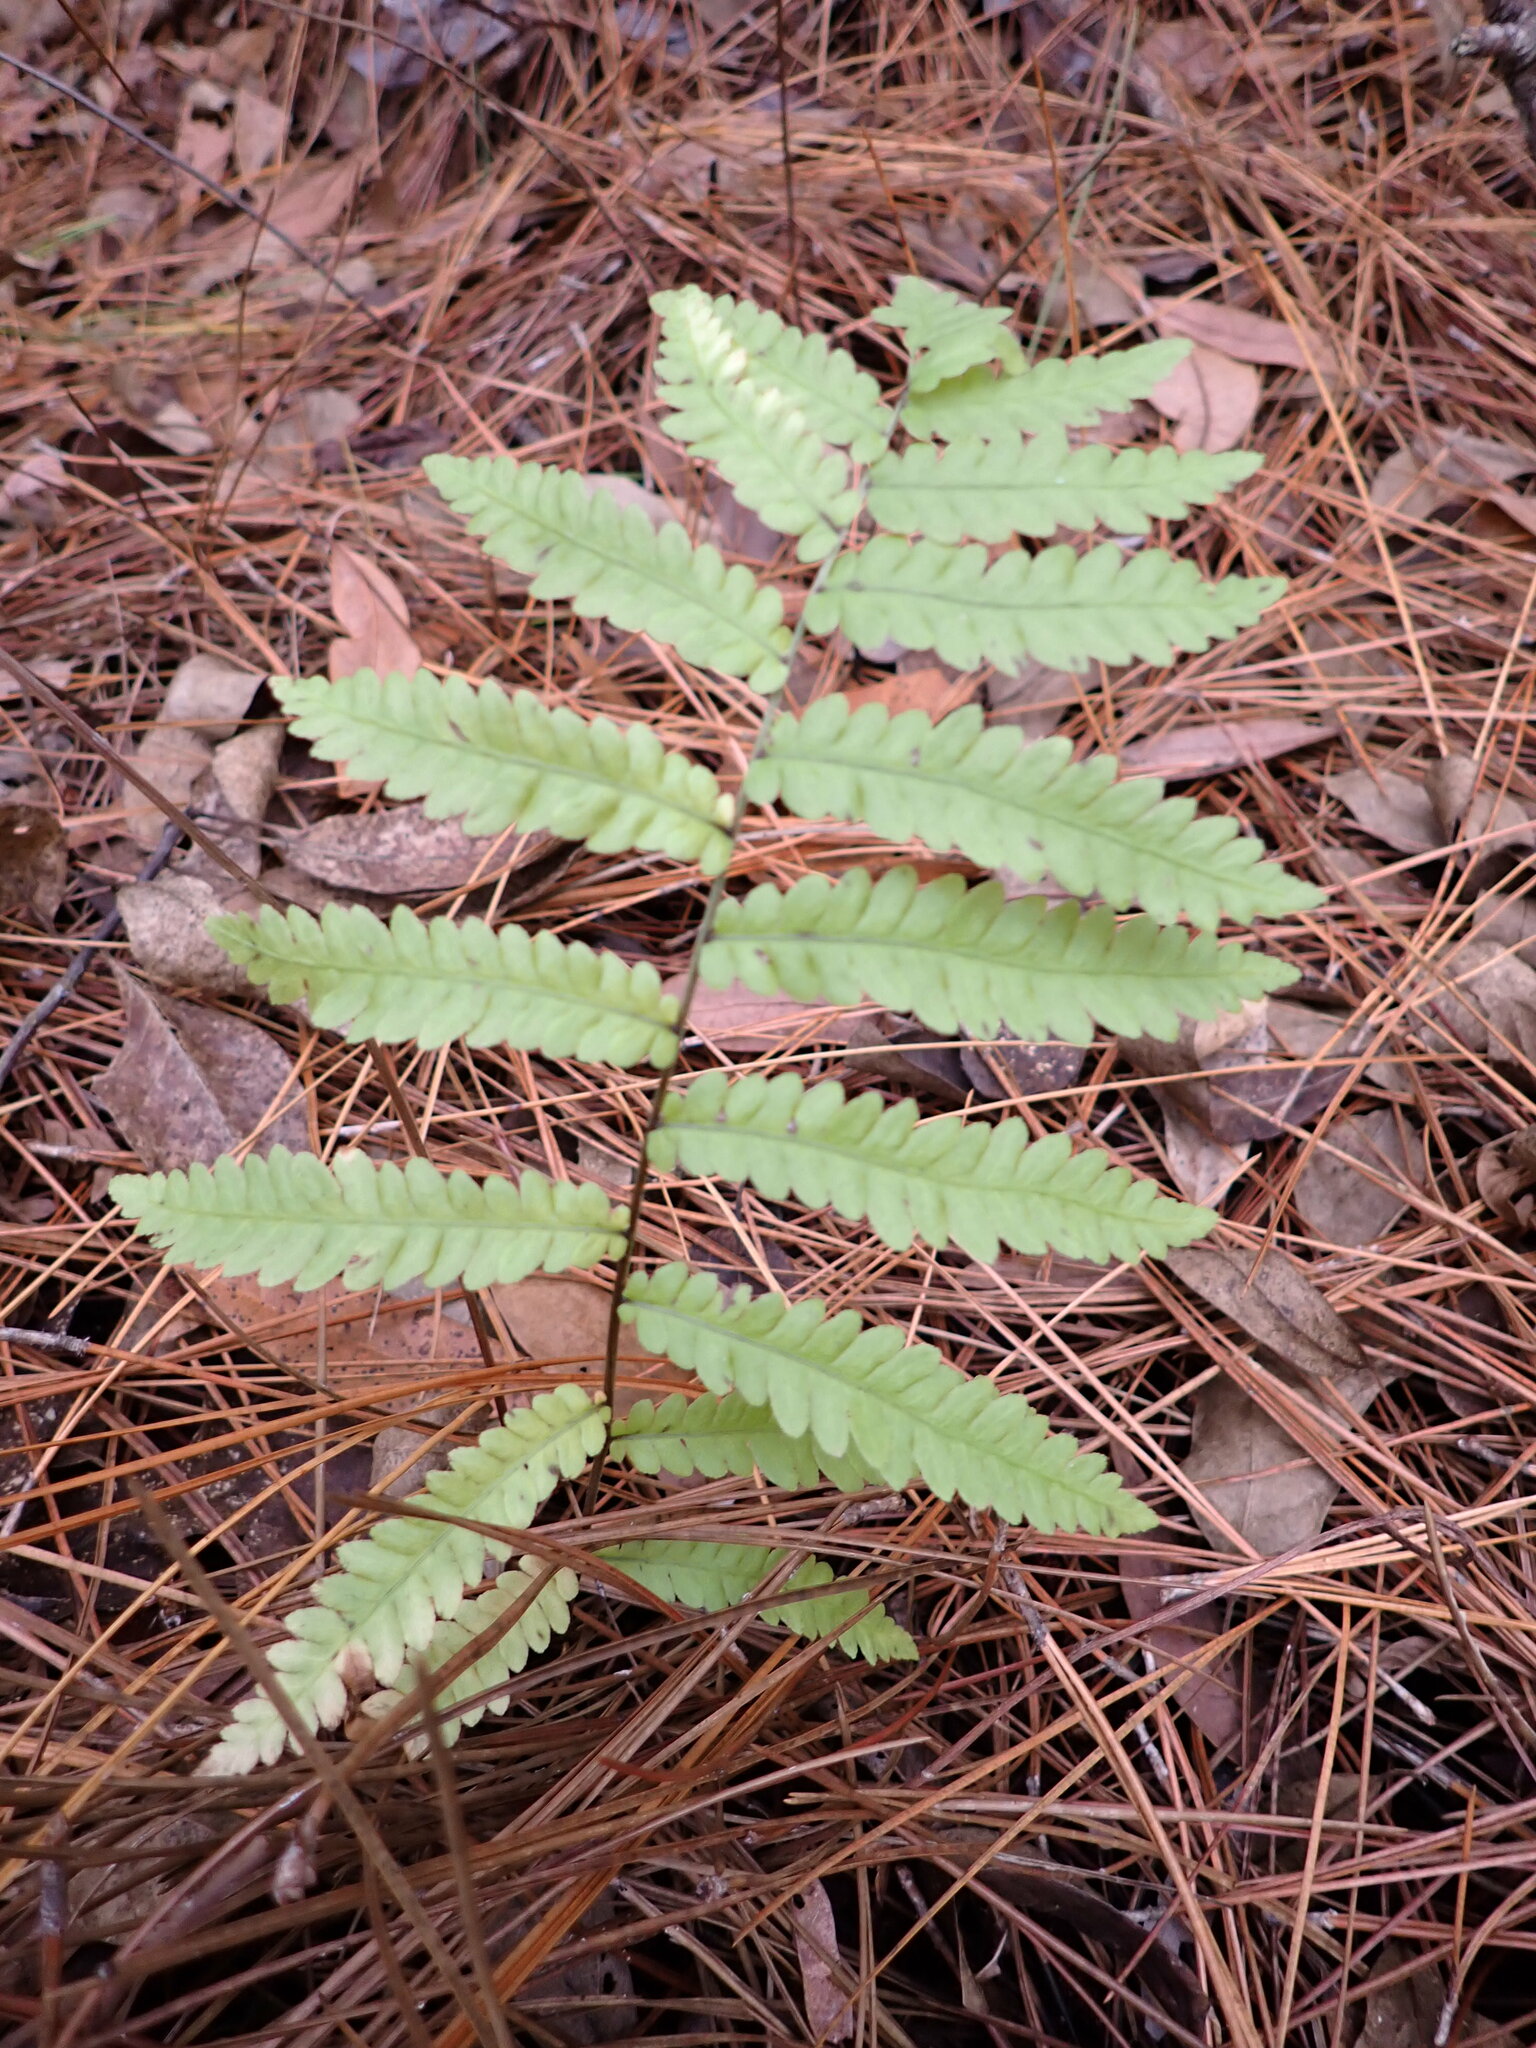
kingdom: Plantae
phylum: Tracheophyta
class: Polypodiopsida
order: Polypodiales
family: Blechnaceae
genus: Anchistea
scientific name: Anchistea virginica
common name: Virginia chain fern
